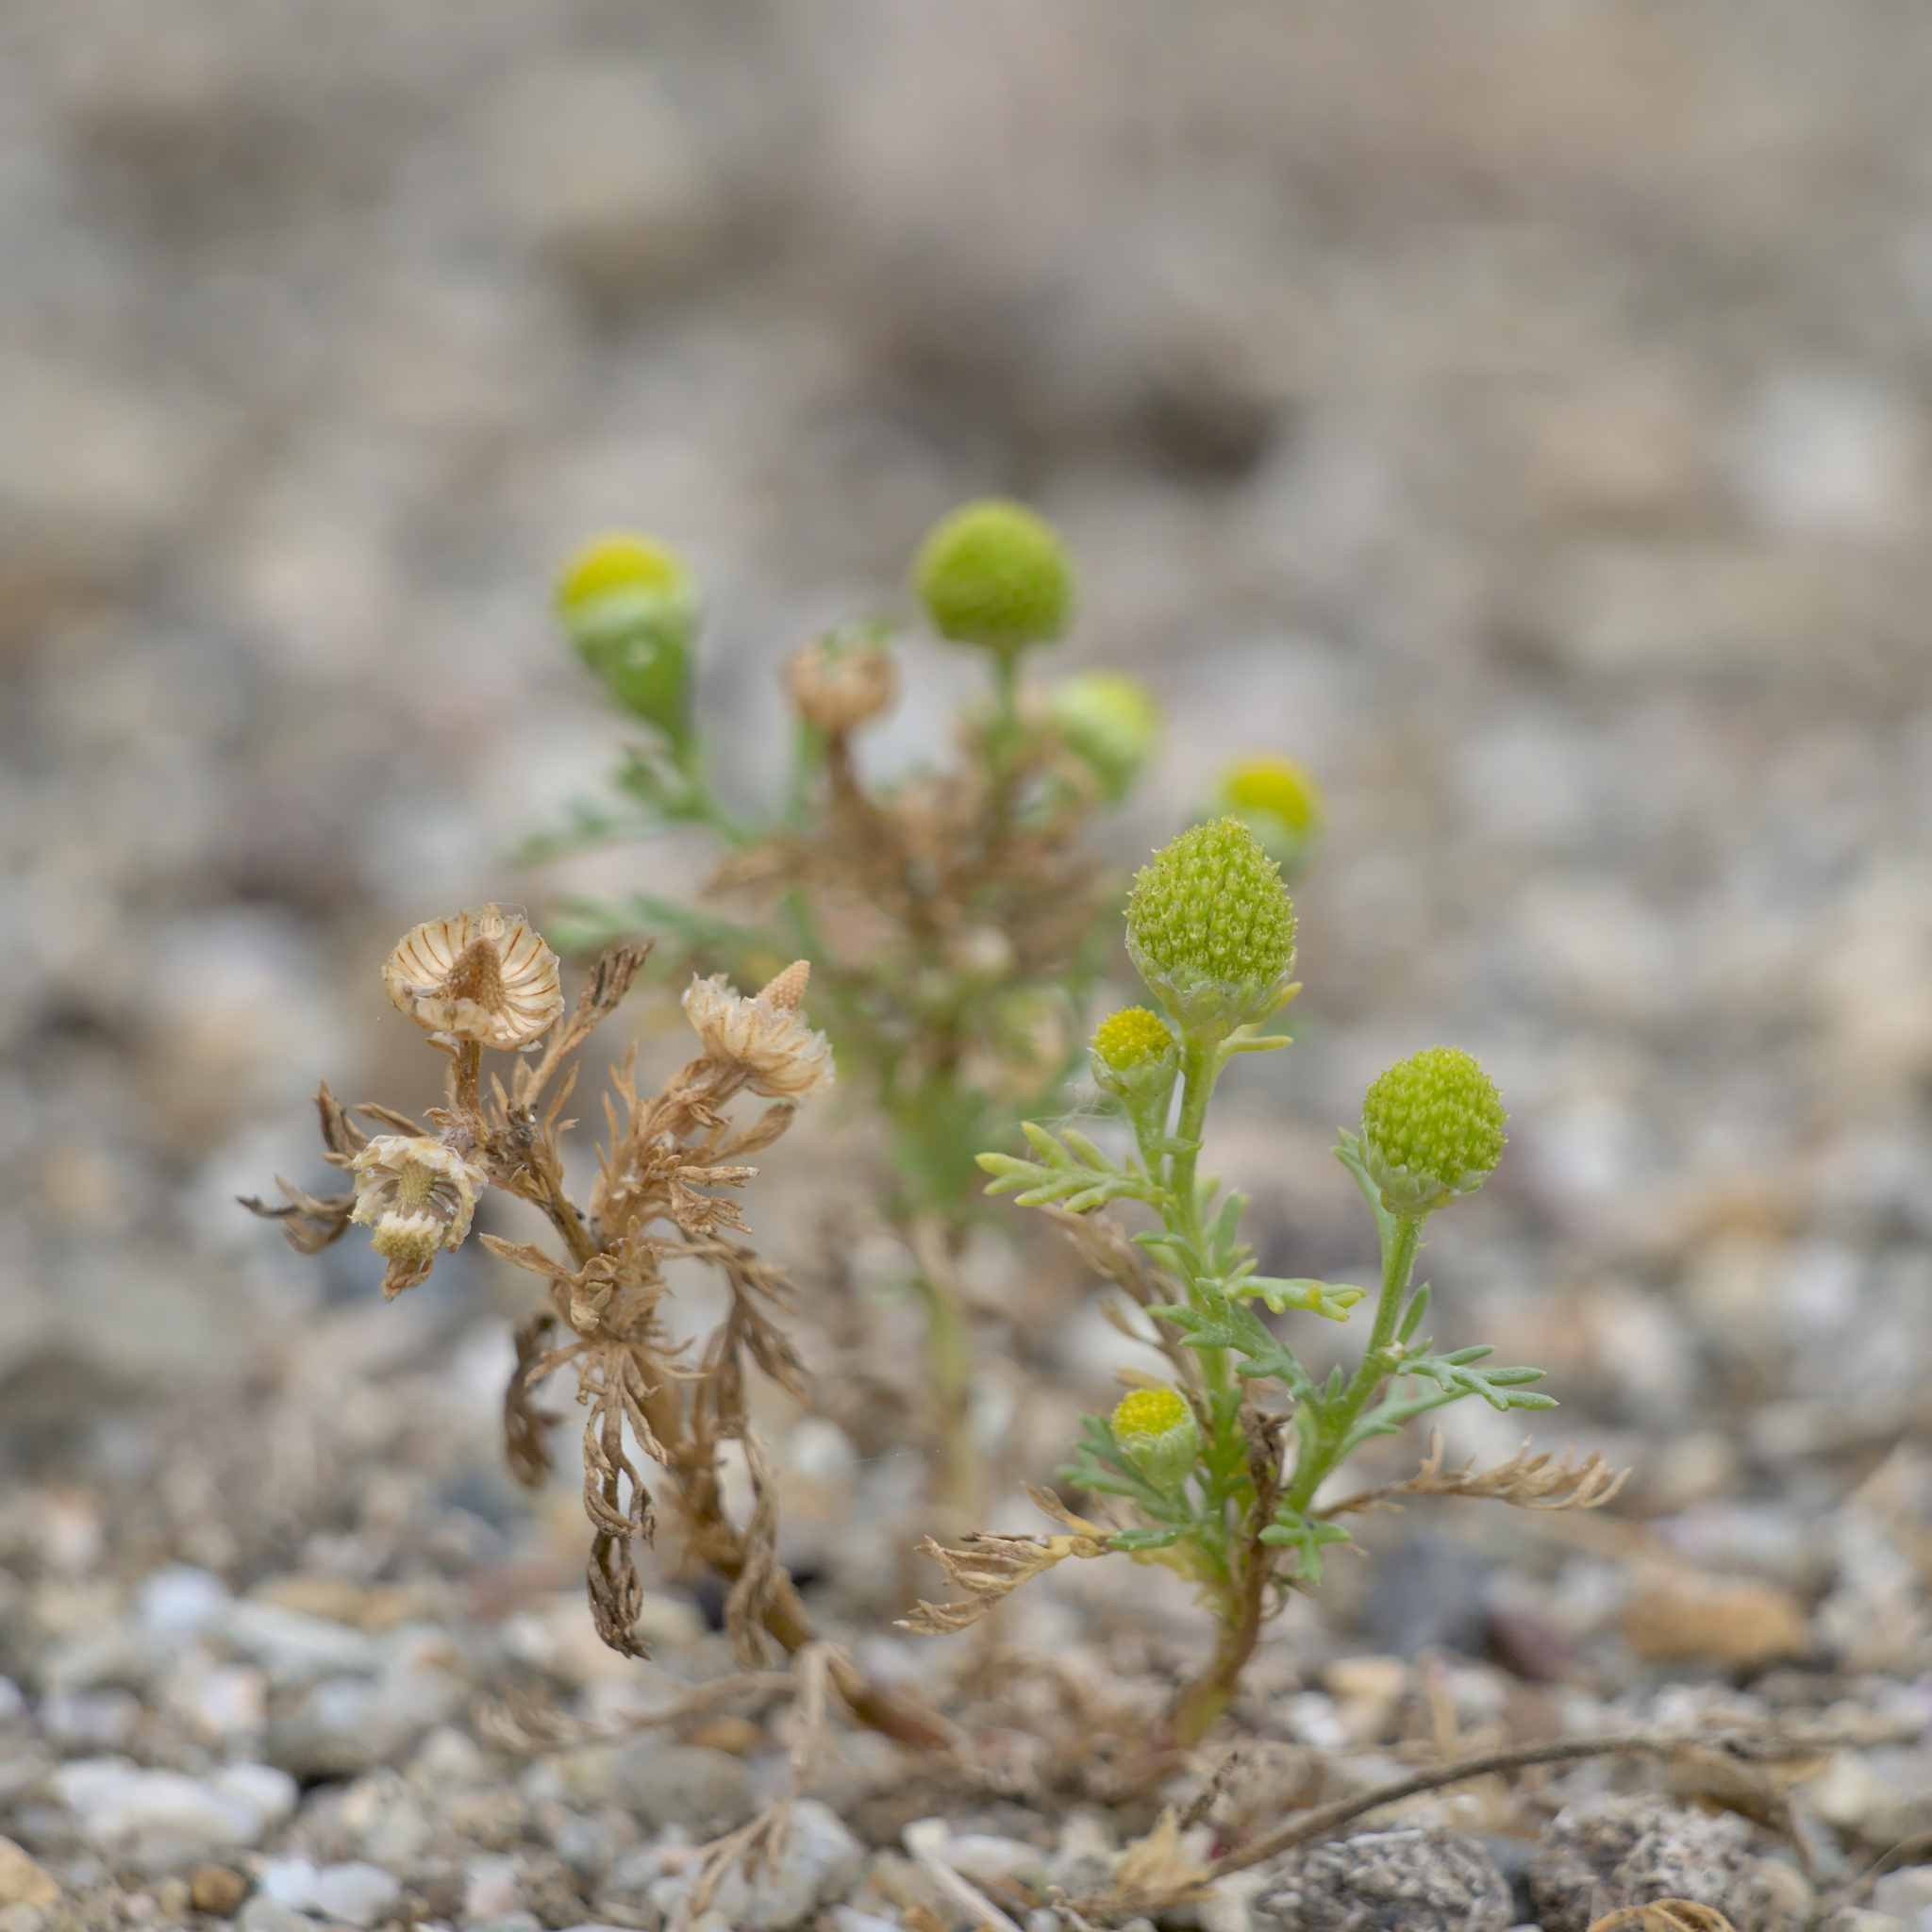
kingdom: Plantae
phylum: Tracheophyta
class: Magnoliopsida
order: Asterales
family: Asteraceae
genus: Matricaria
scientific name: Matricaria discoidea
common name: Disc mayweed
